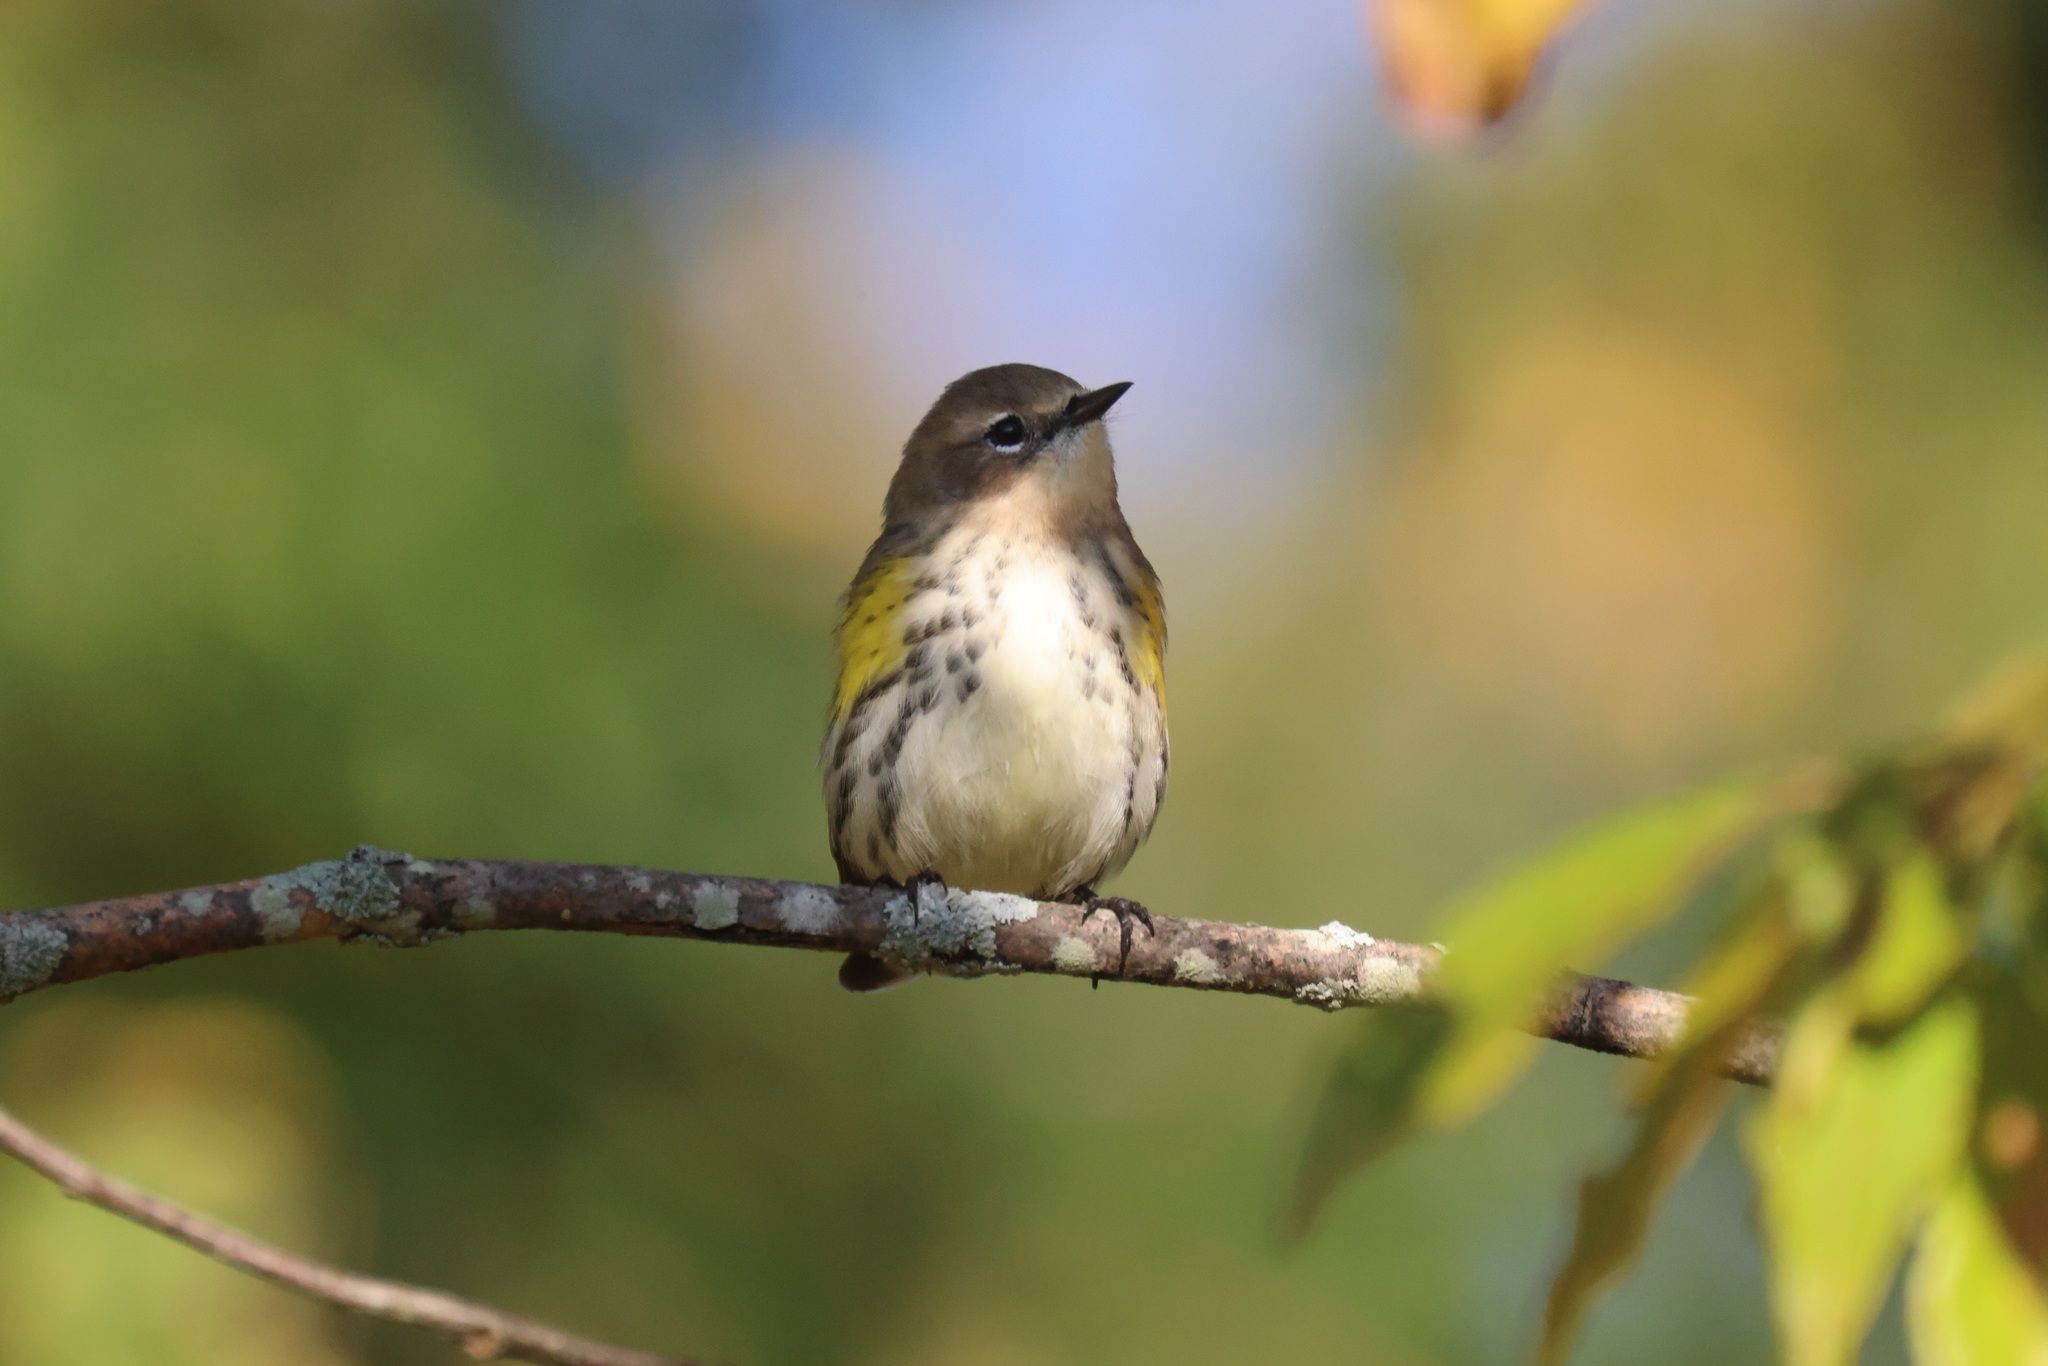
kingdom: Animalia
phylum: Chordata
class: Aves
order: Passeriformes
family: Parulidae
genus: Setophaga
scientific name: Setophaga coronata
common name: Myrtle warbler
